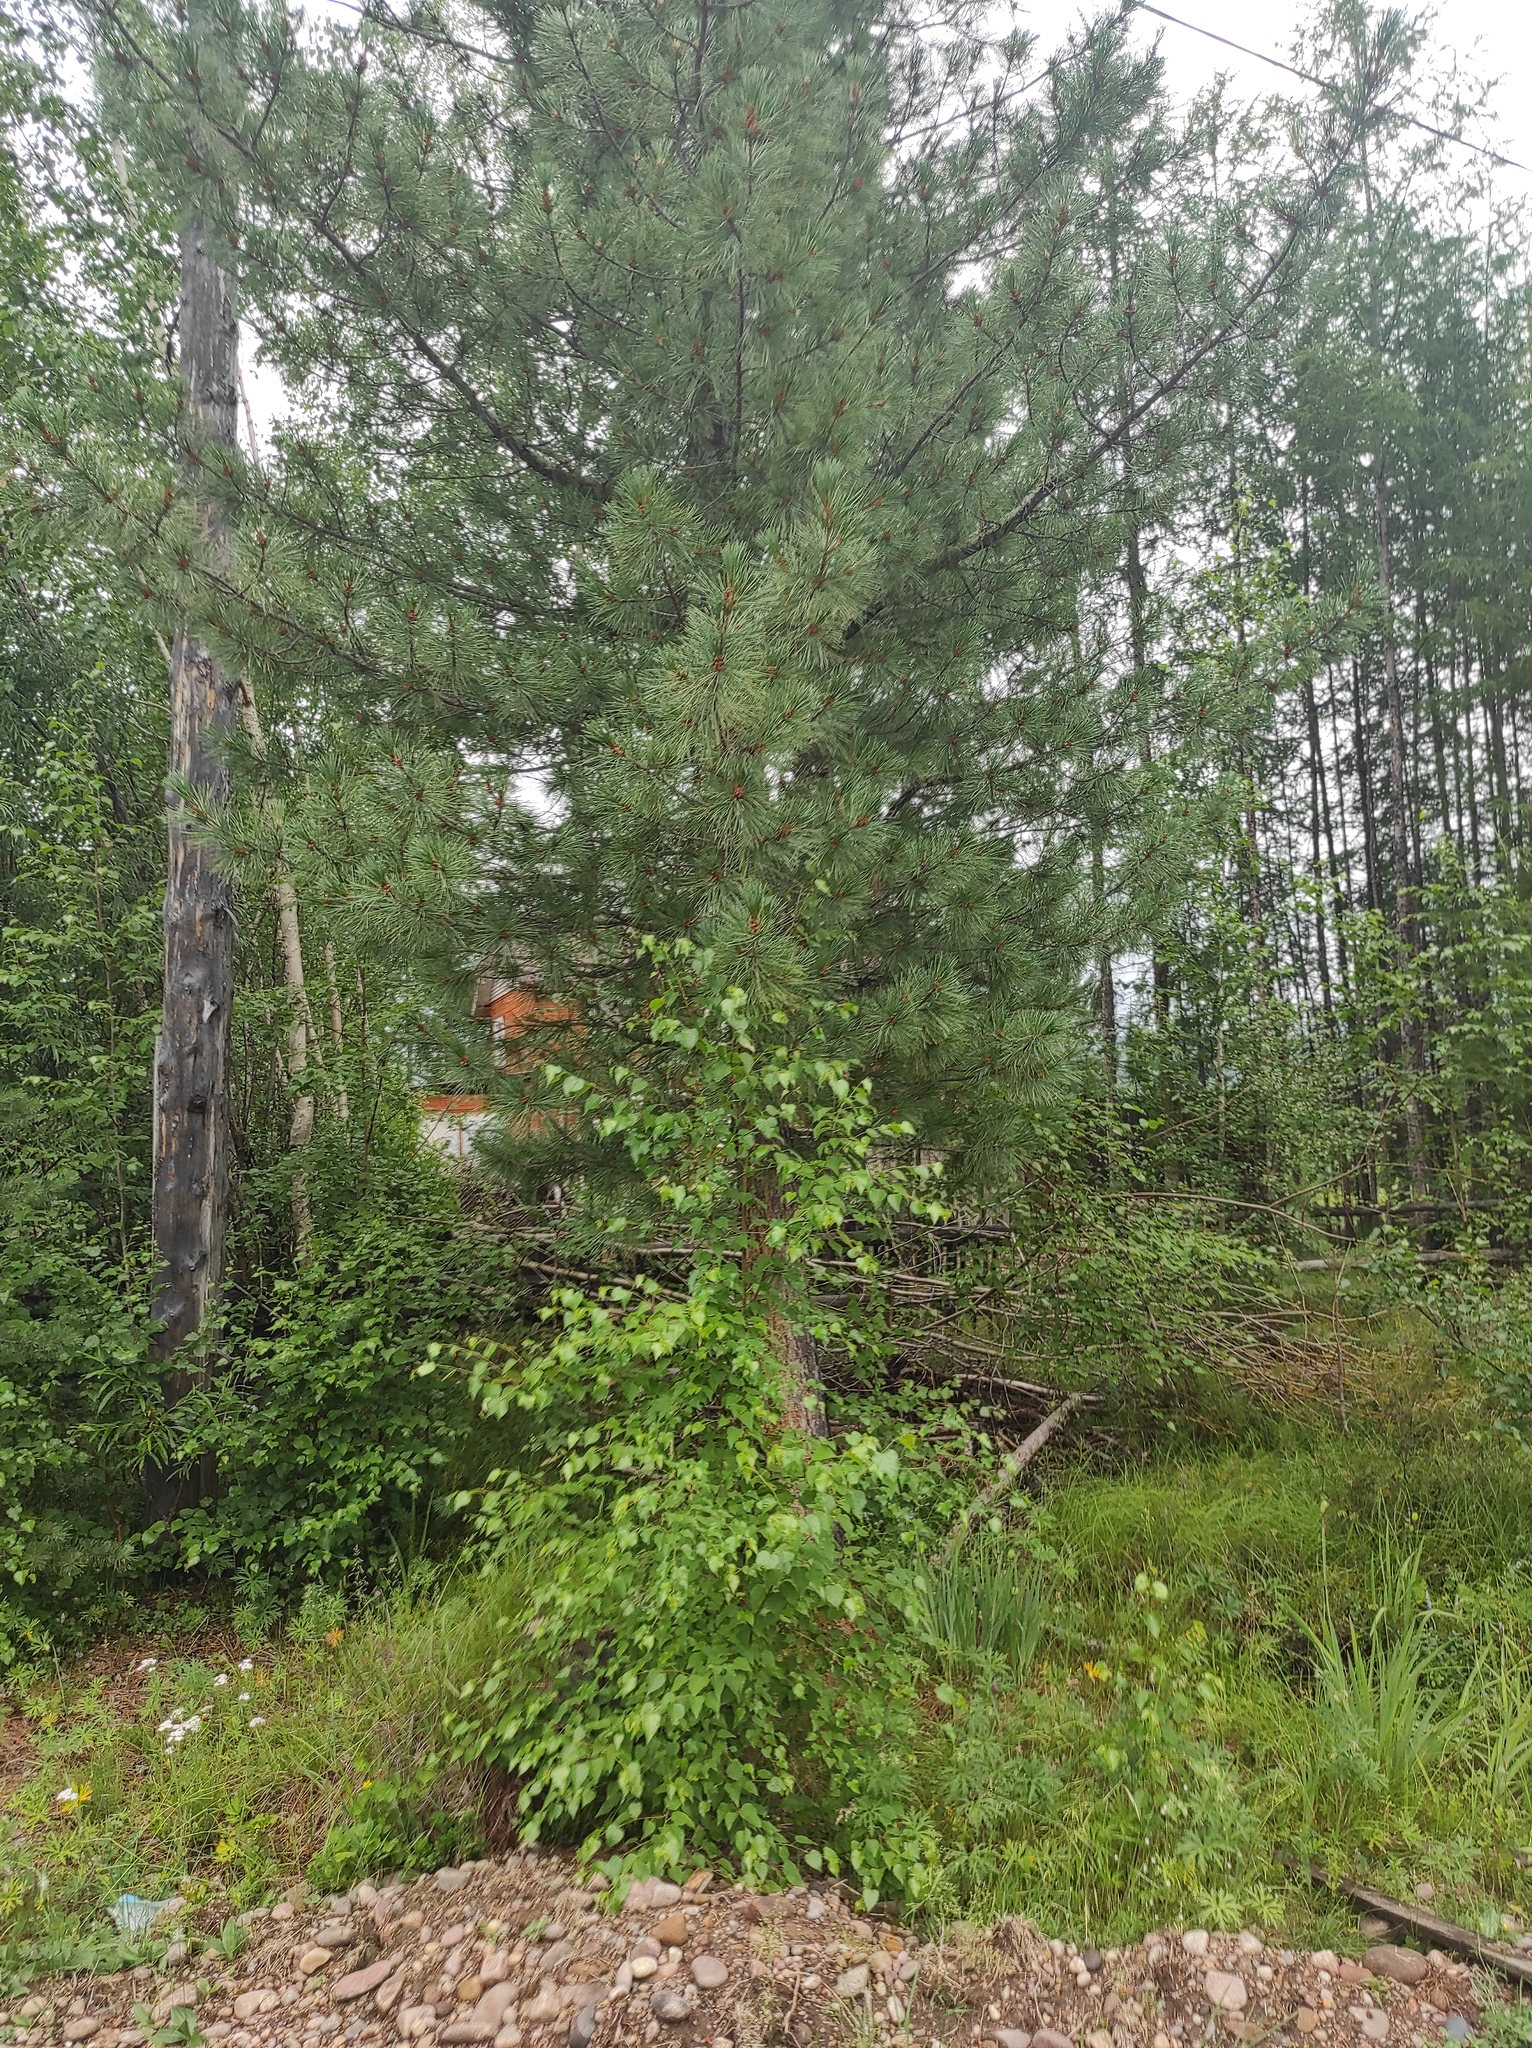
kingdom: Plantae
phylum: Tracheophyta
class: Pinopsida
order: Pinales
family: Pinaceae
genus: Pinus
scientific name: Pinus sibirica
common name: Siberian pine
